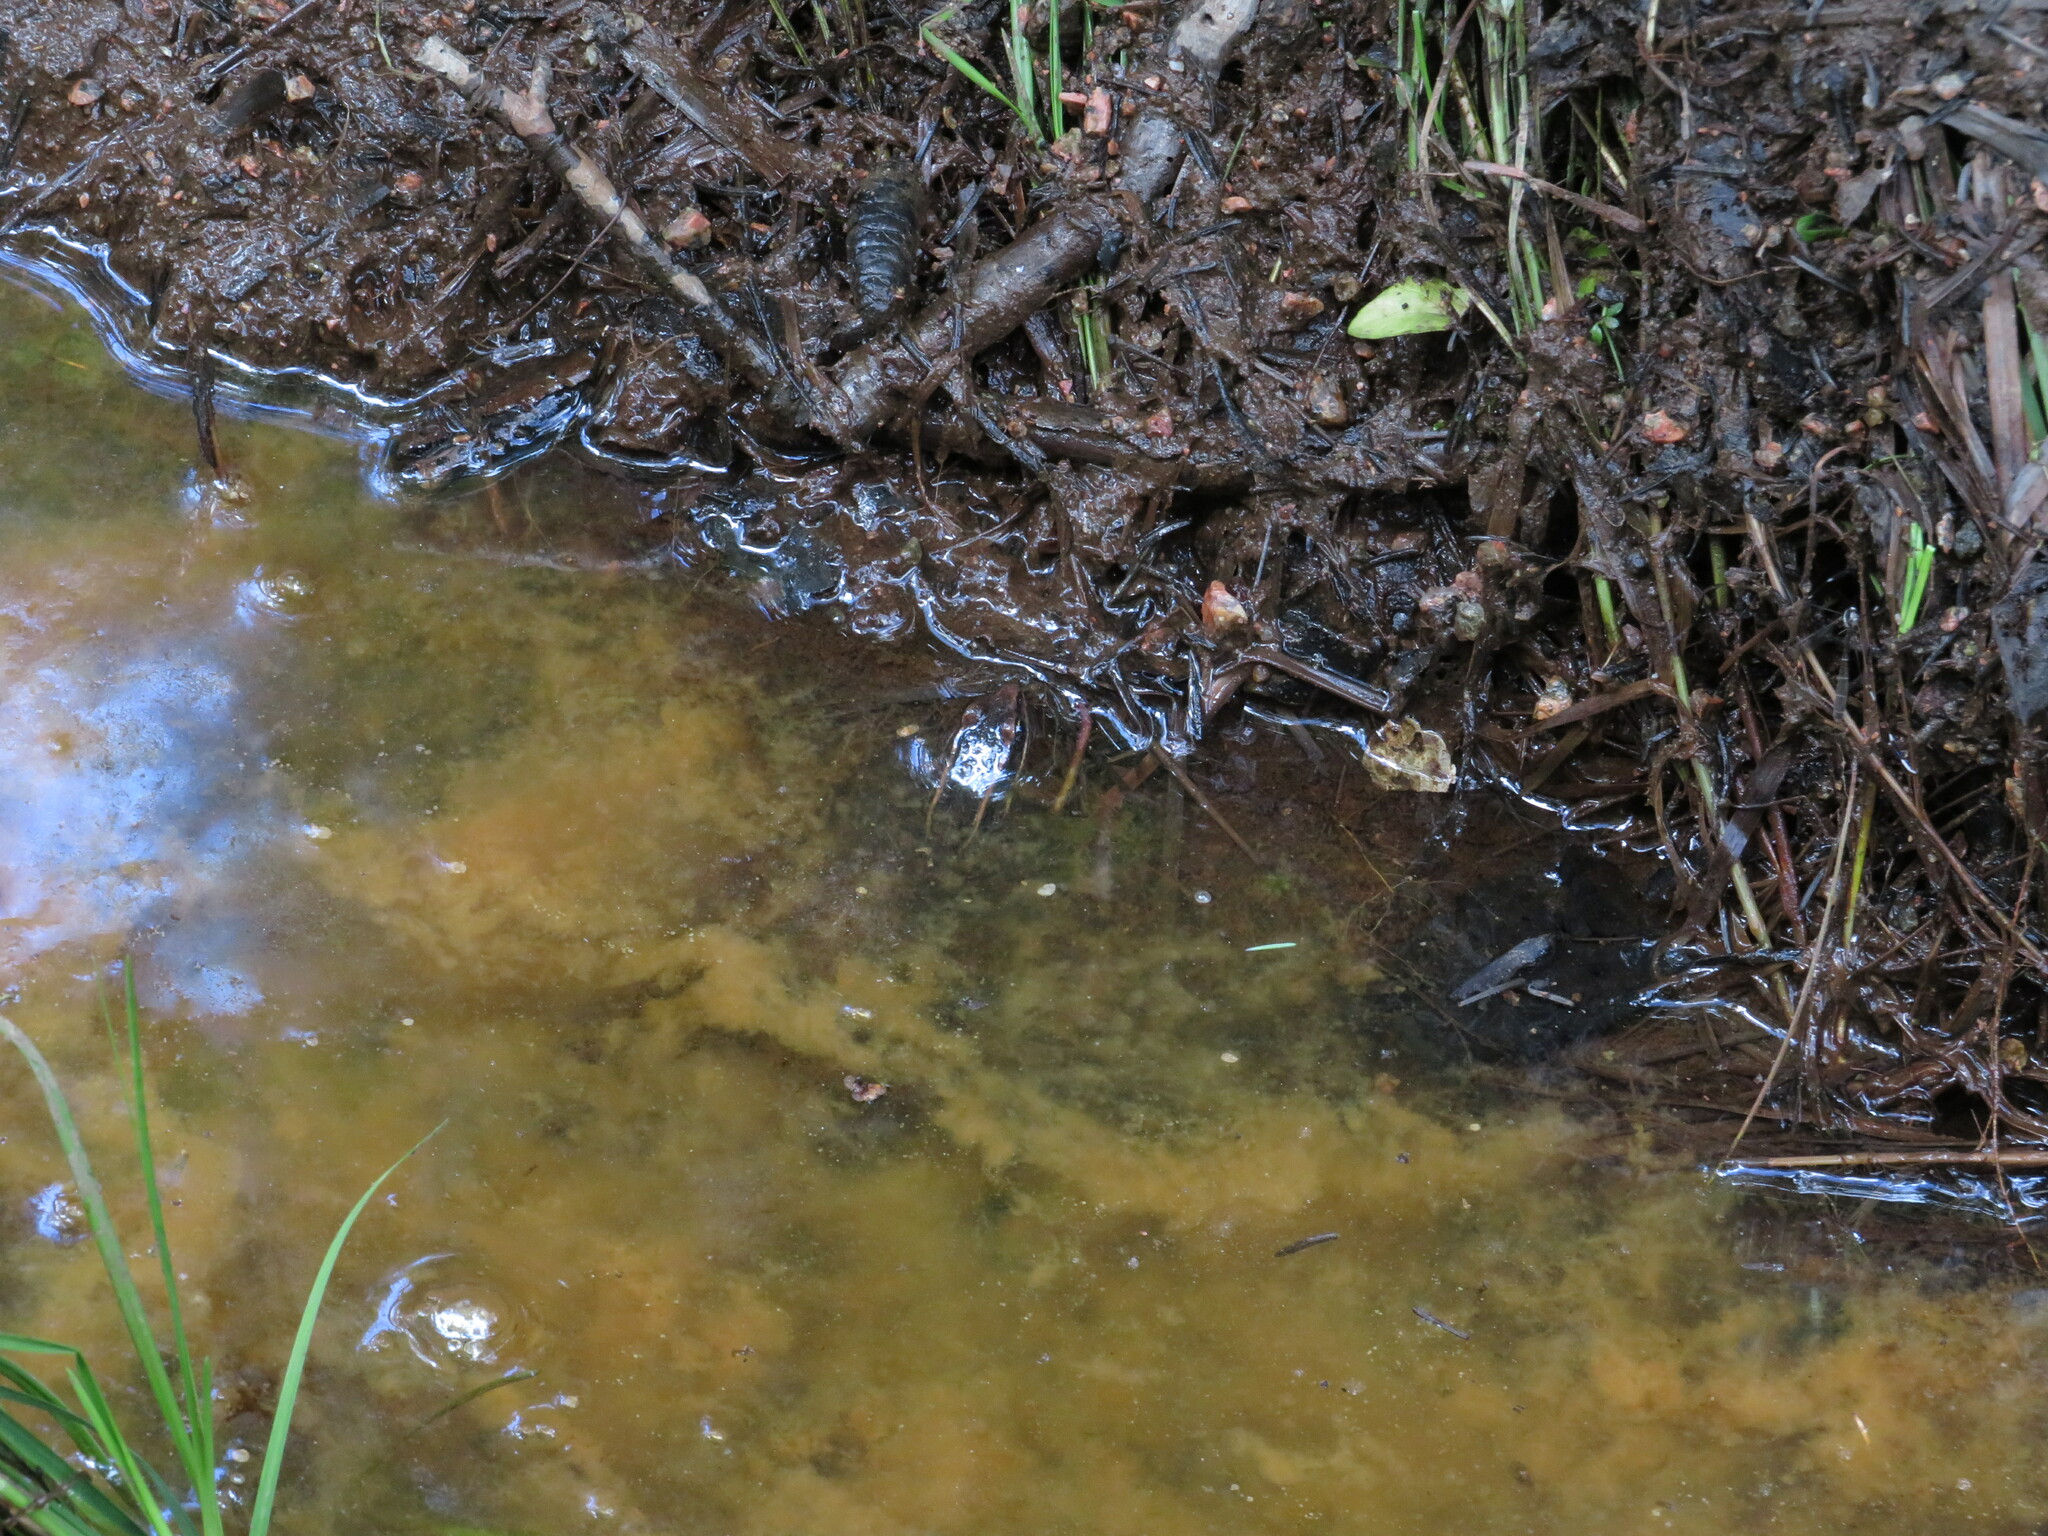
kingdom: Animalia
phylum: Chordata
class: Amphibia
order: Anura
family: Ranidae
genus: Lithobates
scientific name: Lithobates palustris
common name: Pickerel frog
